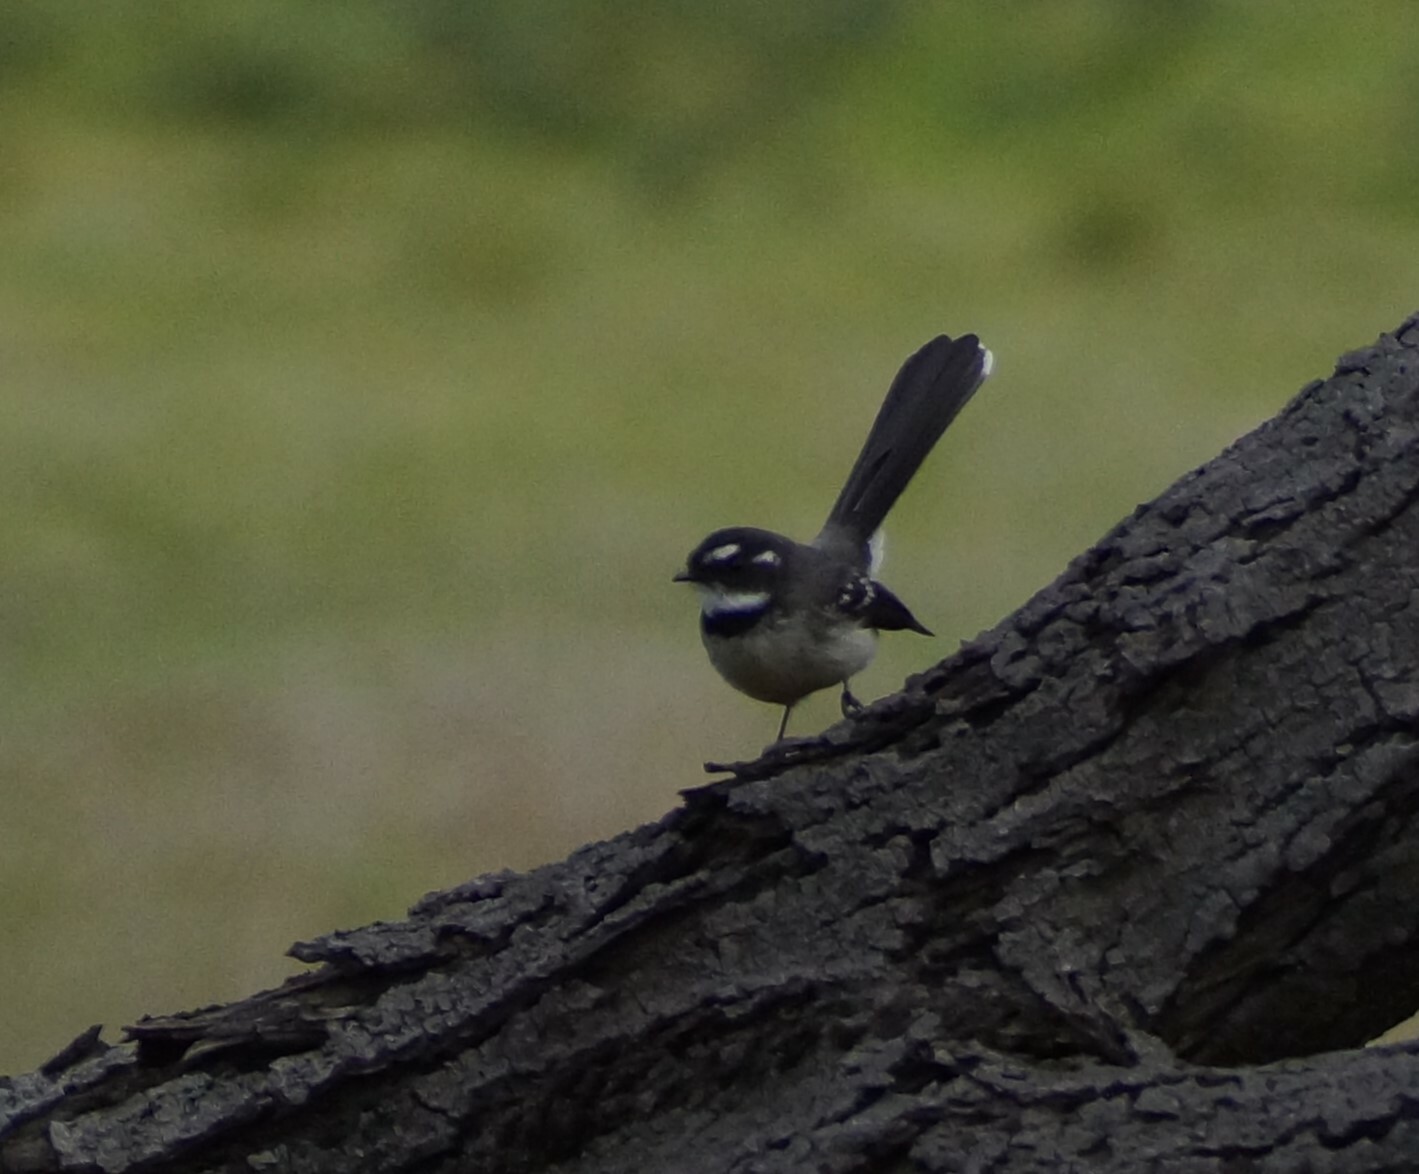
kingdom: Animalia
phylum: Chordata
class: Aves
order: Passeriformes
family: Rhipiduridae
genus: Rhipidura
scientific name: Rhipidura albiscapa
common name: Grey fantail
